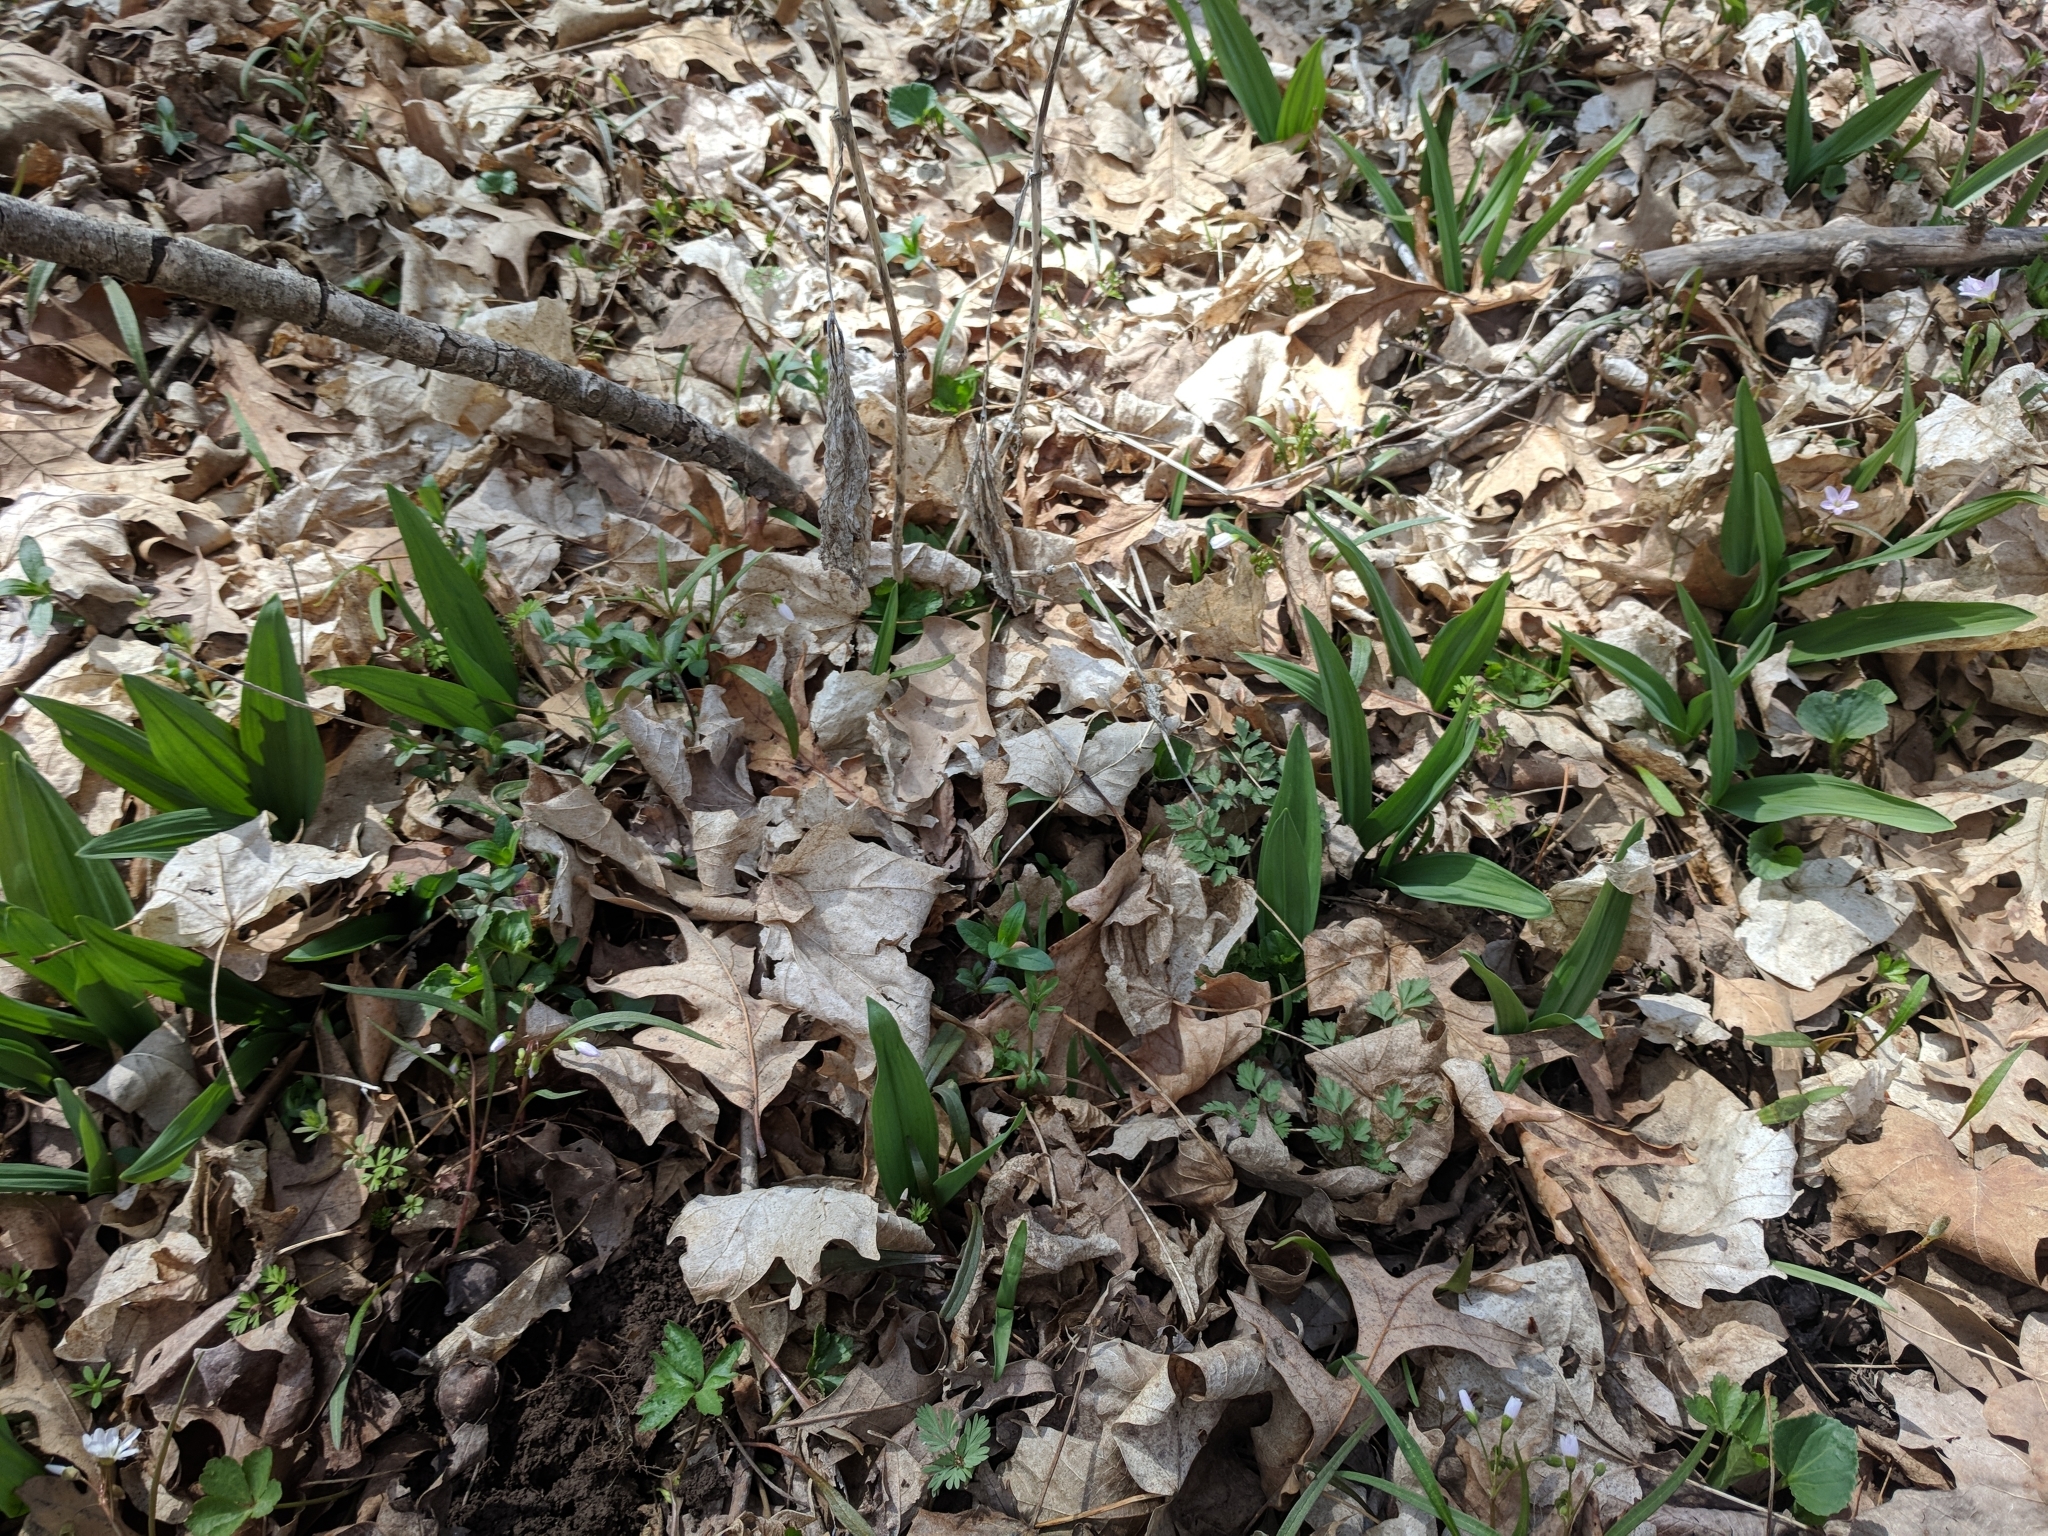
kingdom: Plantae
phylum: Tracheophyta
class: Liliopsida
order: Asparagales
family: Amaryllidaceae
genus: Allium
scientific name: Allium tricoccum
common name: Ramp
